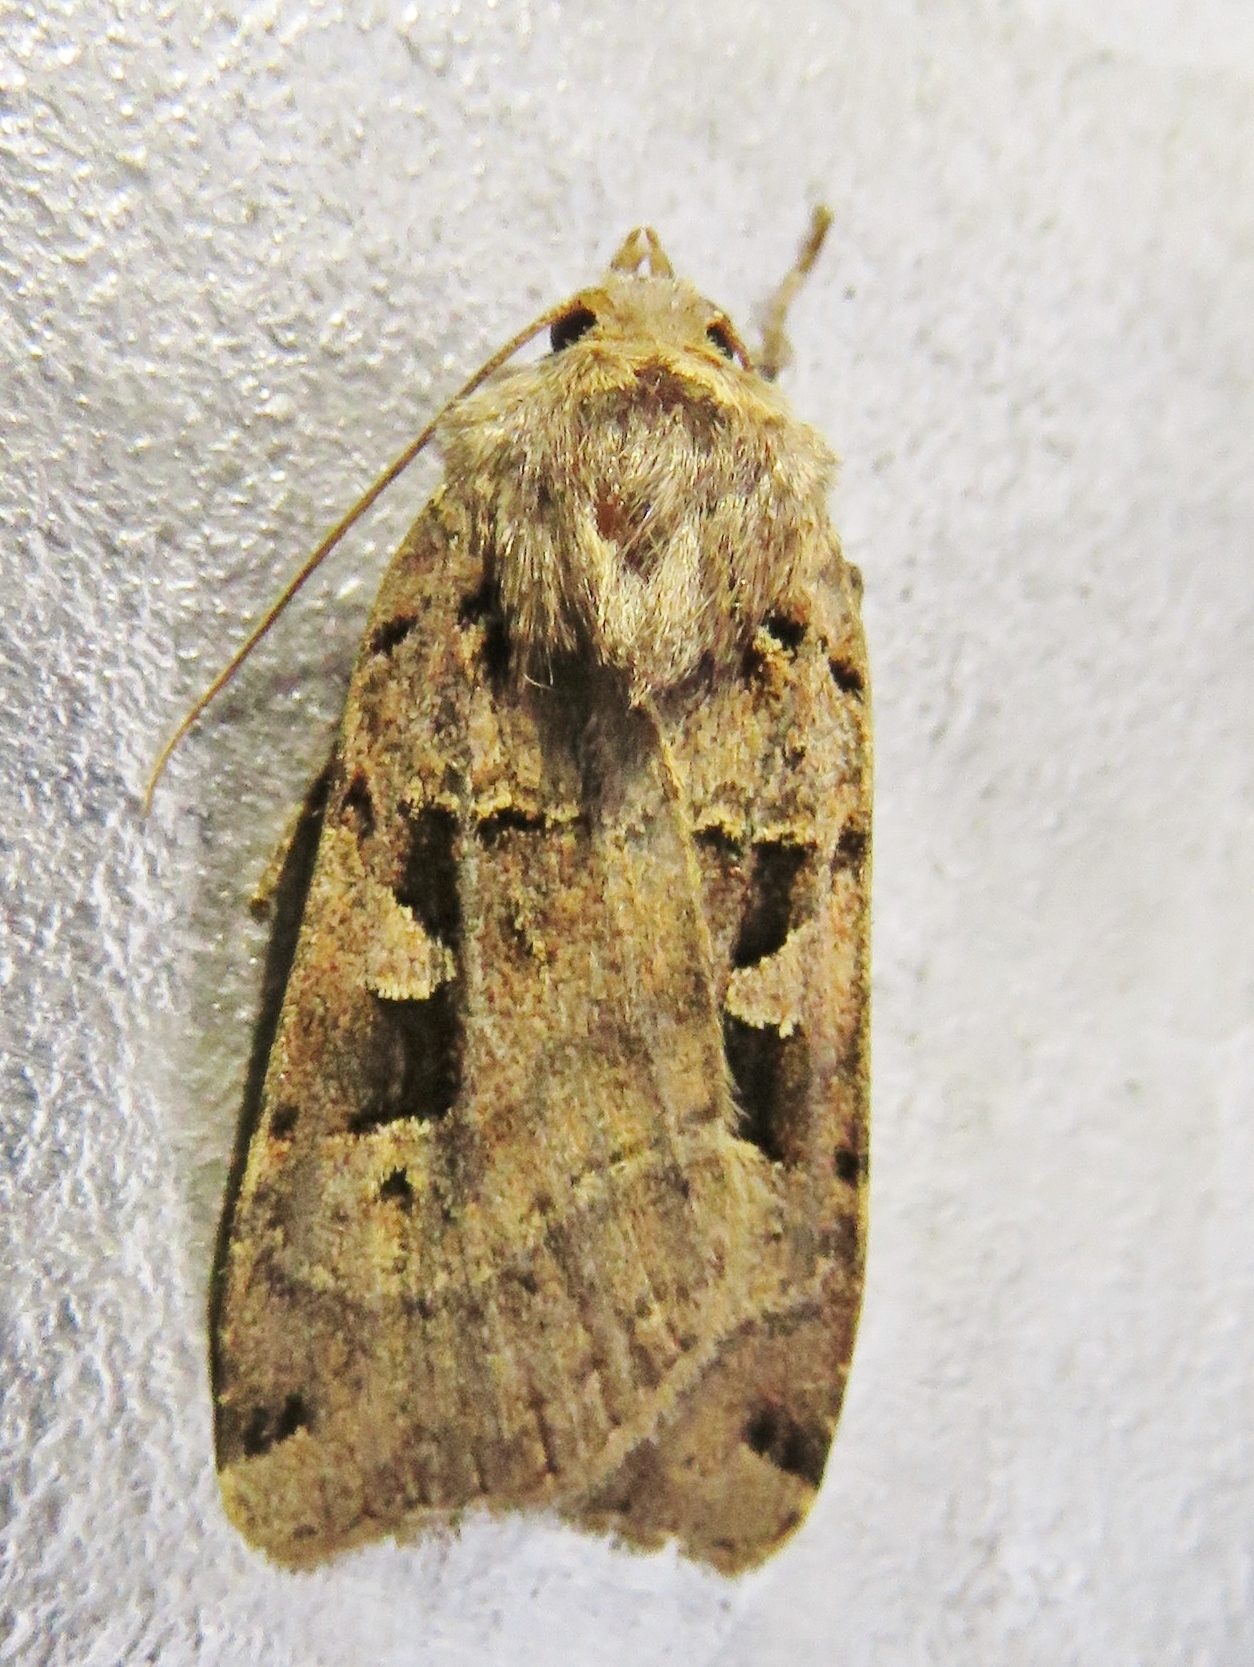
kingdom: Animalia
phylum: Arthropoda
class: Insecta
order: Lepidoptera
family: Noctuidae
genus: Xestia
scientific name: Xestia triangulum
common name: Double square-spot
